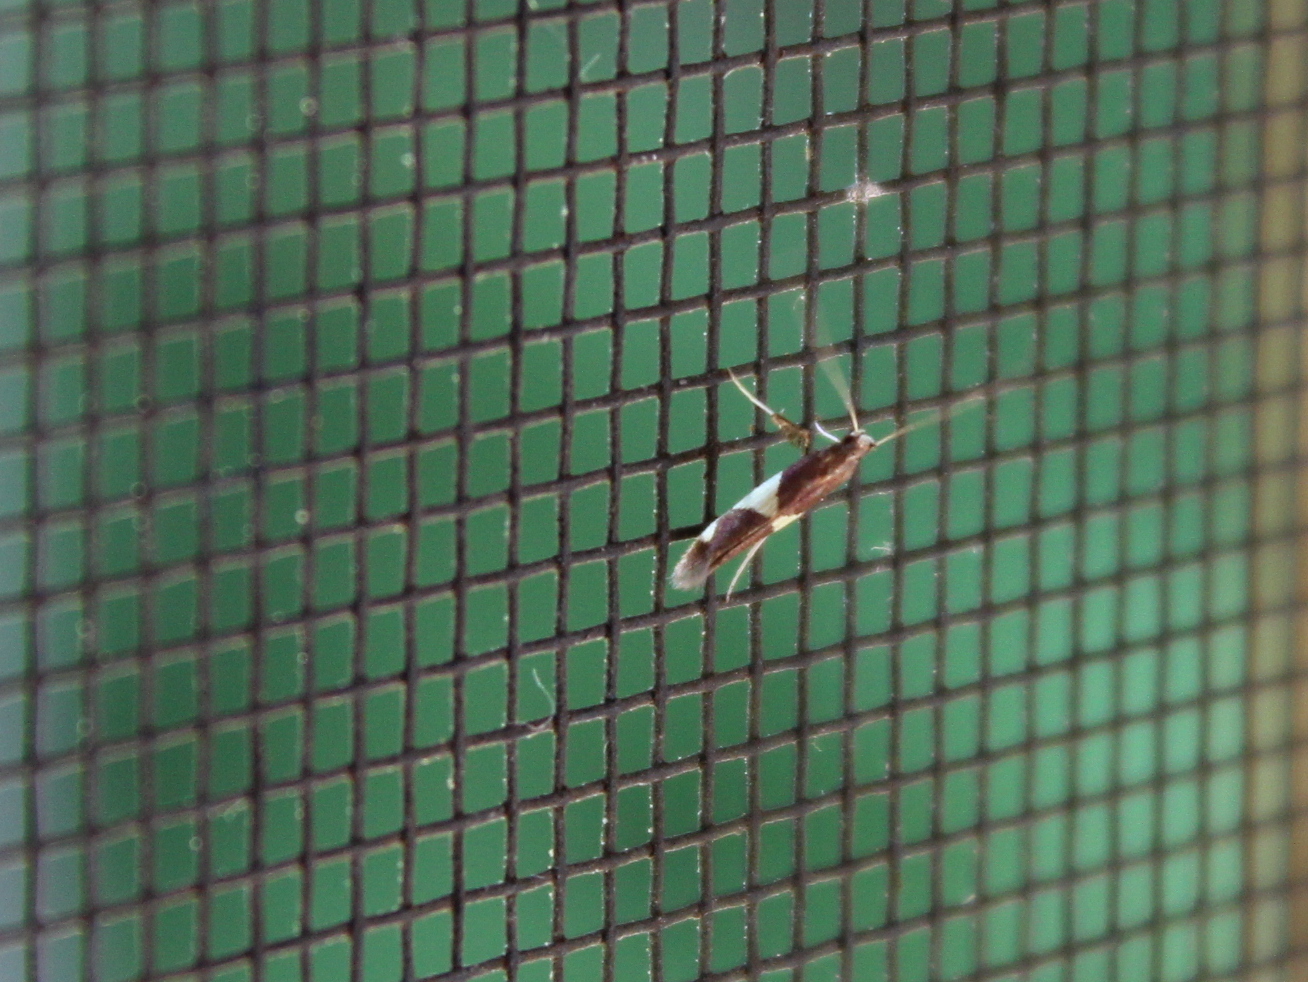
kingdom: Animalia
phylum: Arthropoda
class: Insecta
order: Lepidoptera
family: Gracillariidae
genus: Caloptilia
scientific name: Caloptilia bimaculatella
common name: Maple caloptilia moth
